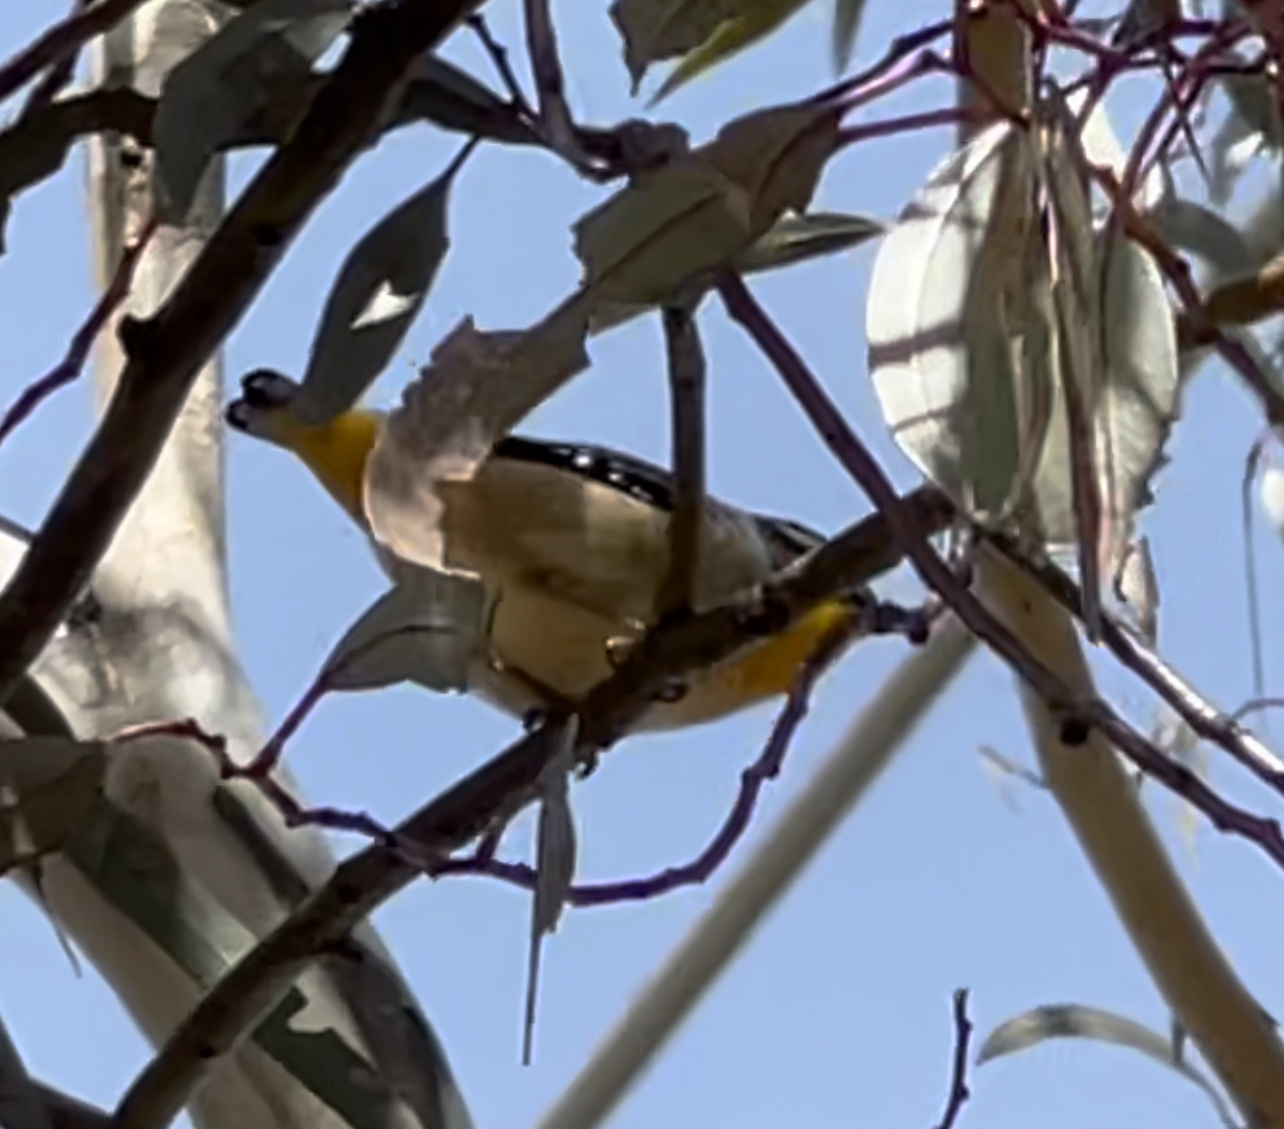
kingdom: Animalia
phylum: Chordata
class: Aves
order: Passeriformes
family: Pardalotidae
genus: Pardalotus
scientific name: Pardalotus punctatus
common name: Spotted pardalote
